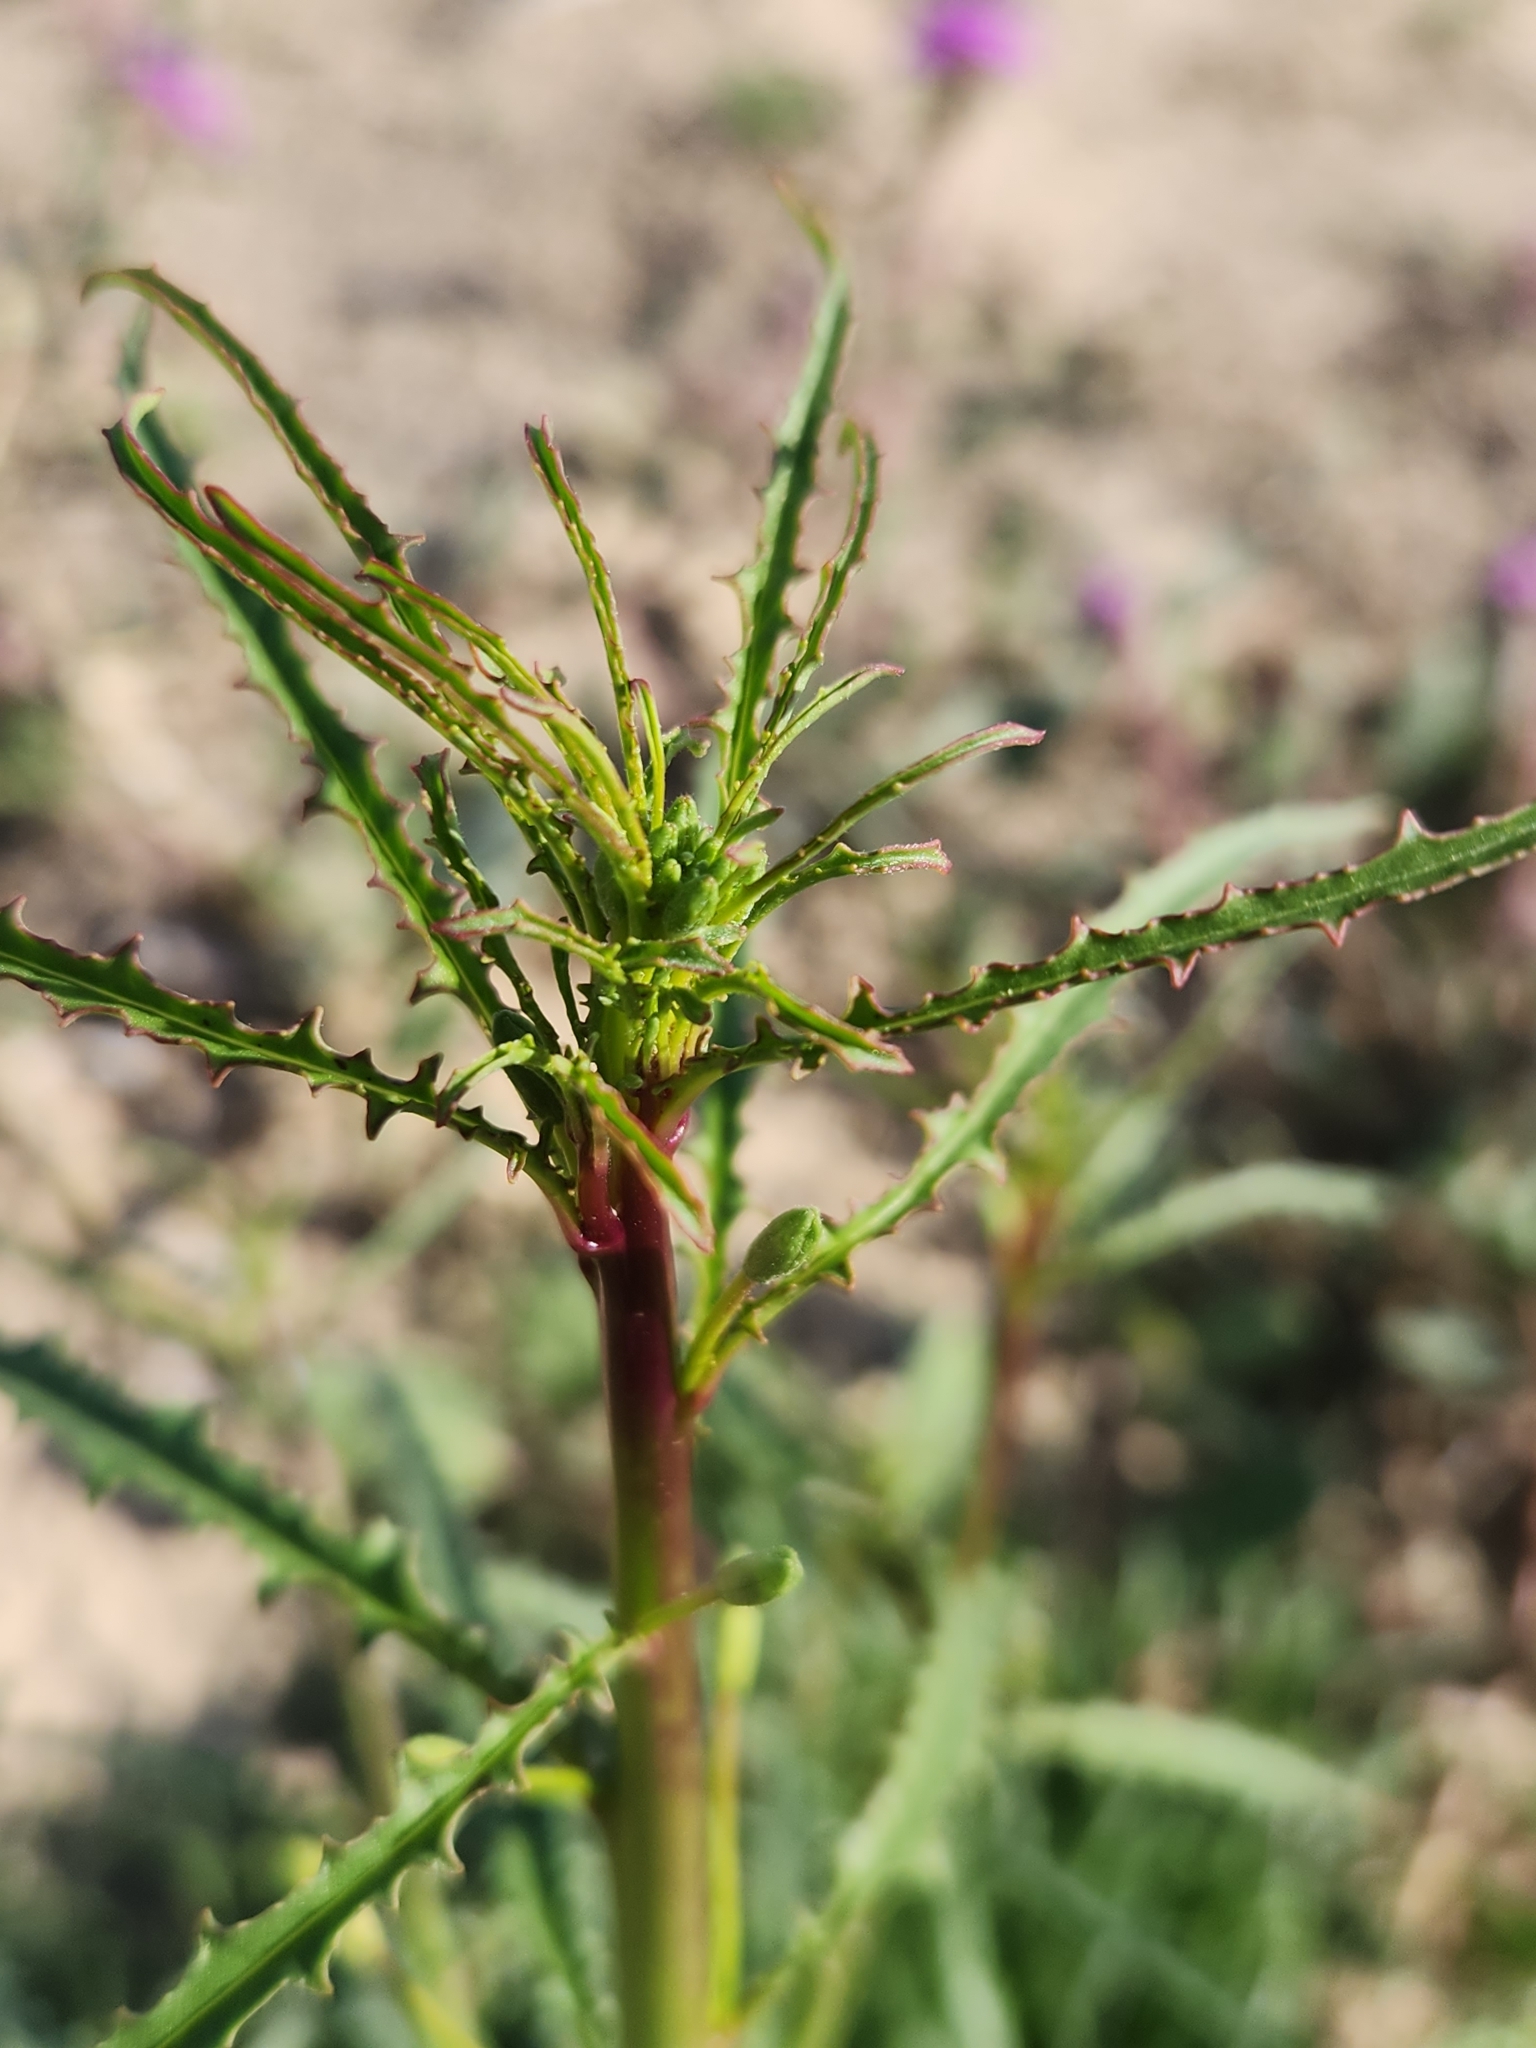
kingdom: Plantae
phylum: Tracheophyta
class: Magnoliopsida
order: Myrtales
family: Onagraceae
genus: Eulobus
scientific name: Eulobus californicus
